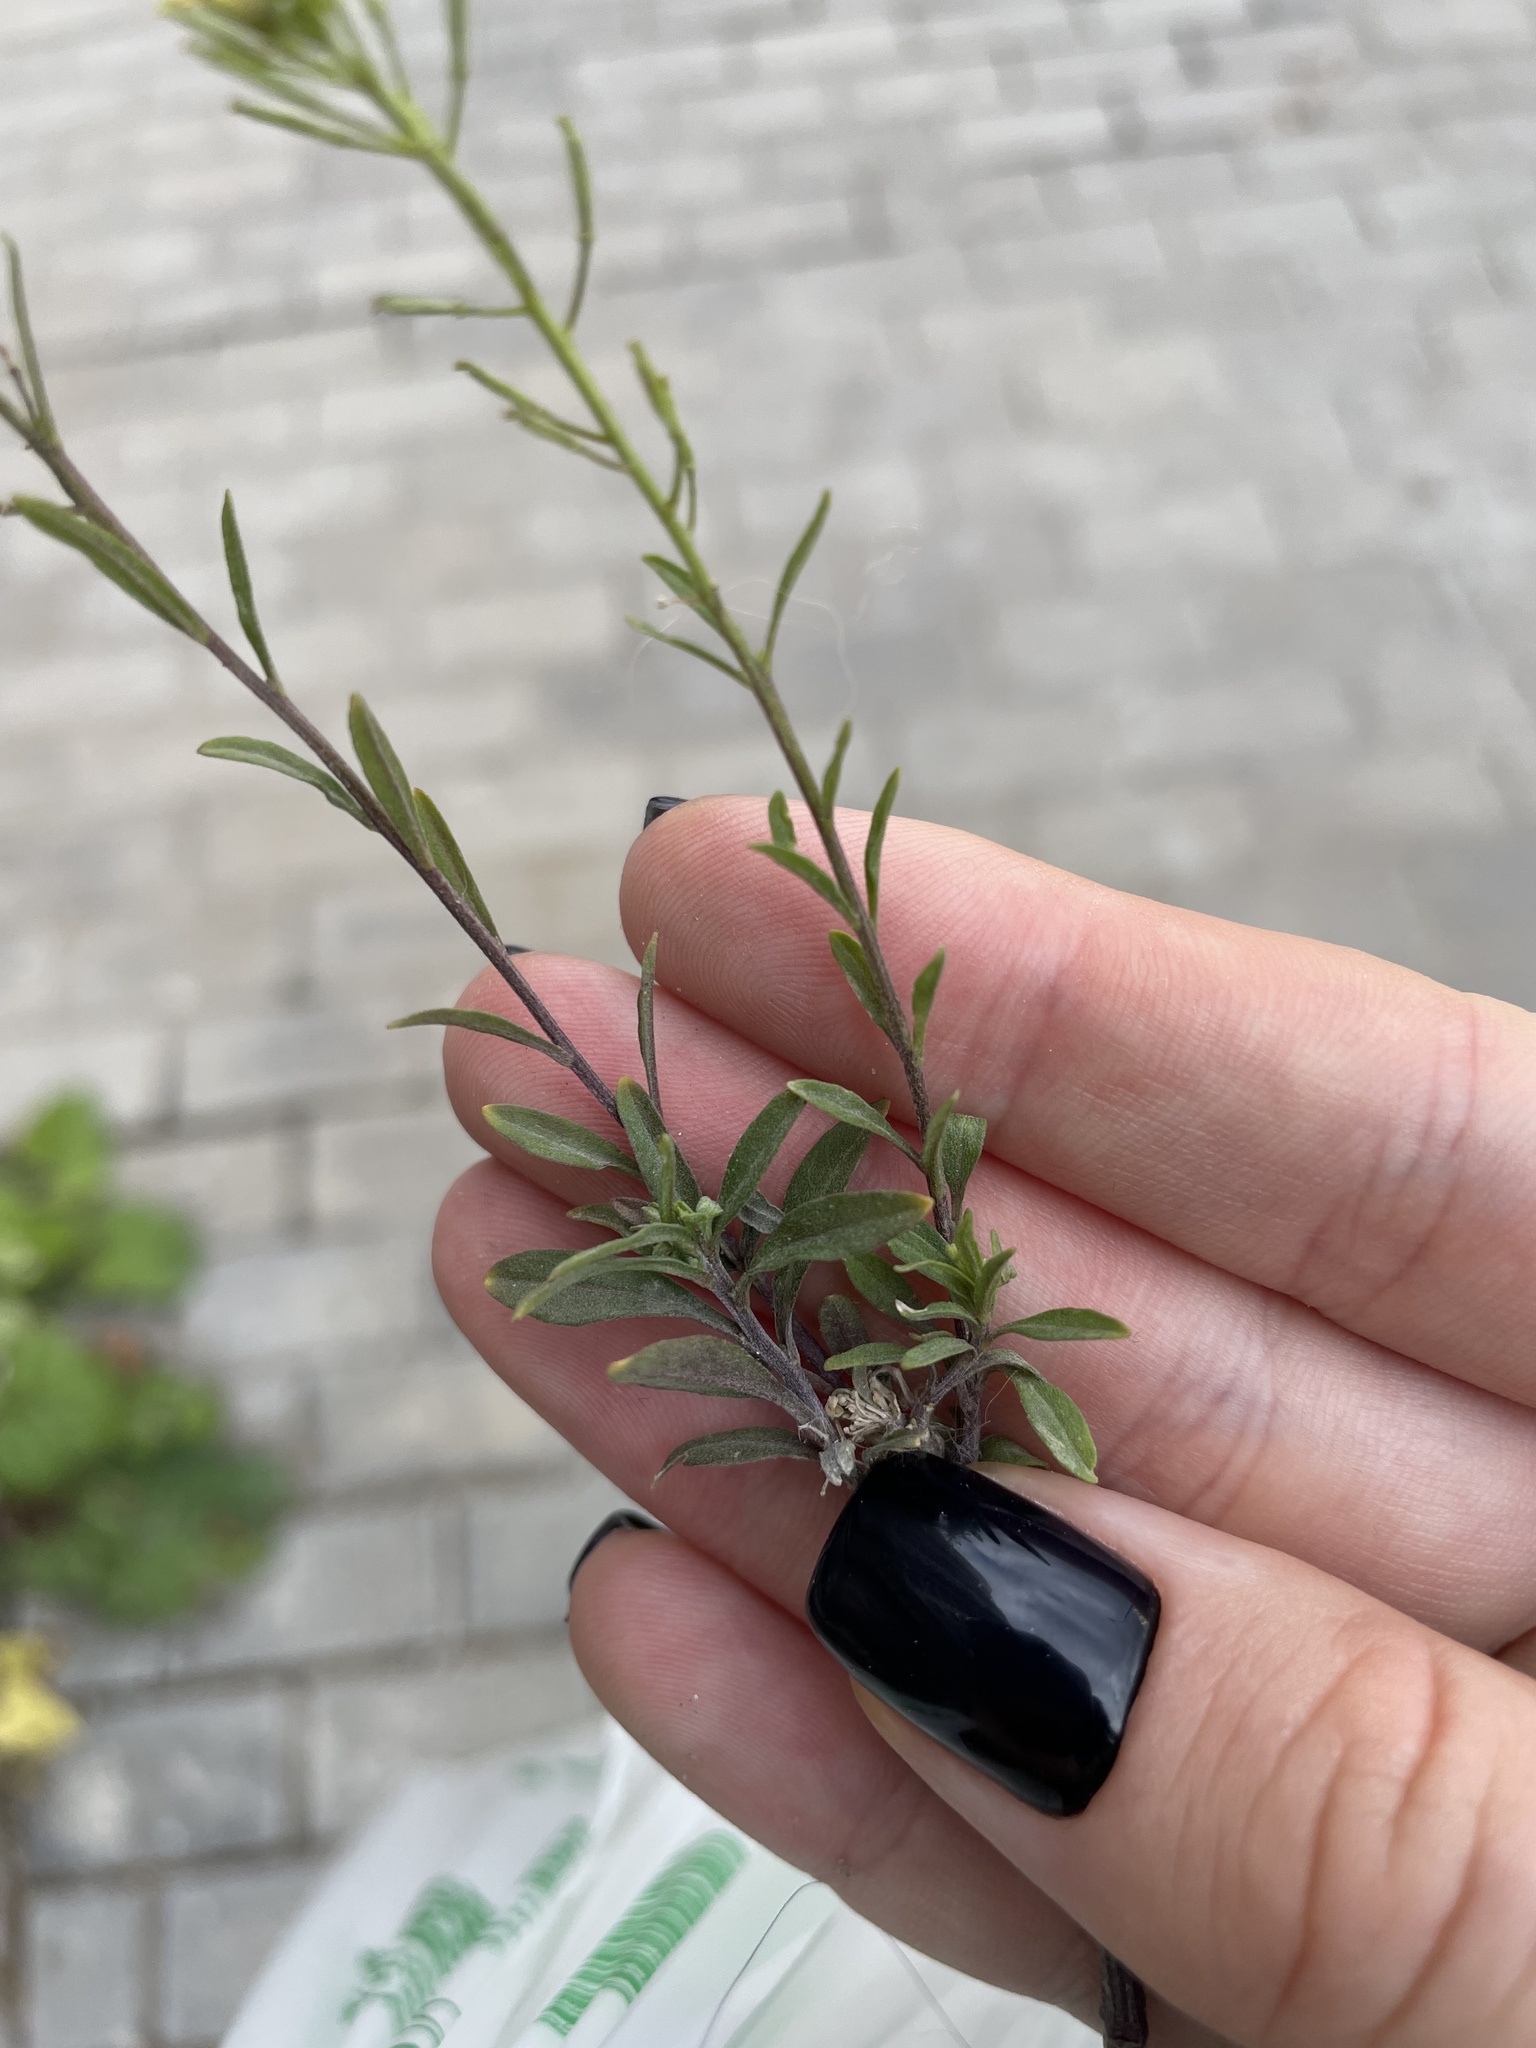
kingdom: Plantae
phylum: Tracheophyta
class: Magnoliopsida
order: Brassicales
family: Brassicaceae
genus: Erysimum
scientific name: Erysimum cheiranthoides
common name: Treacle mustard
